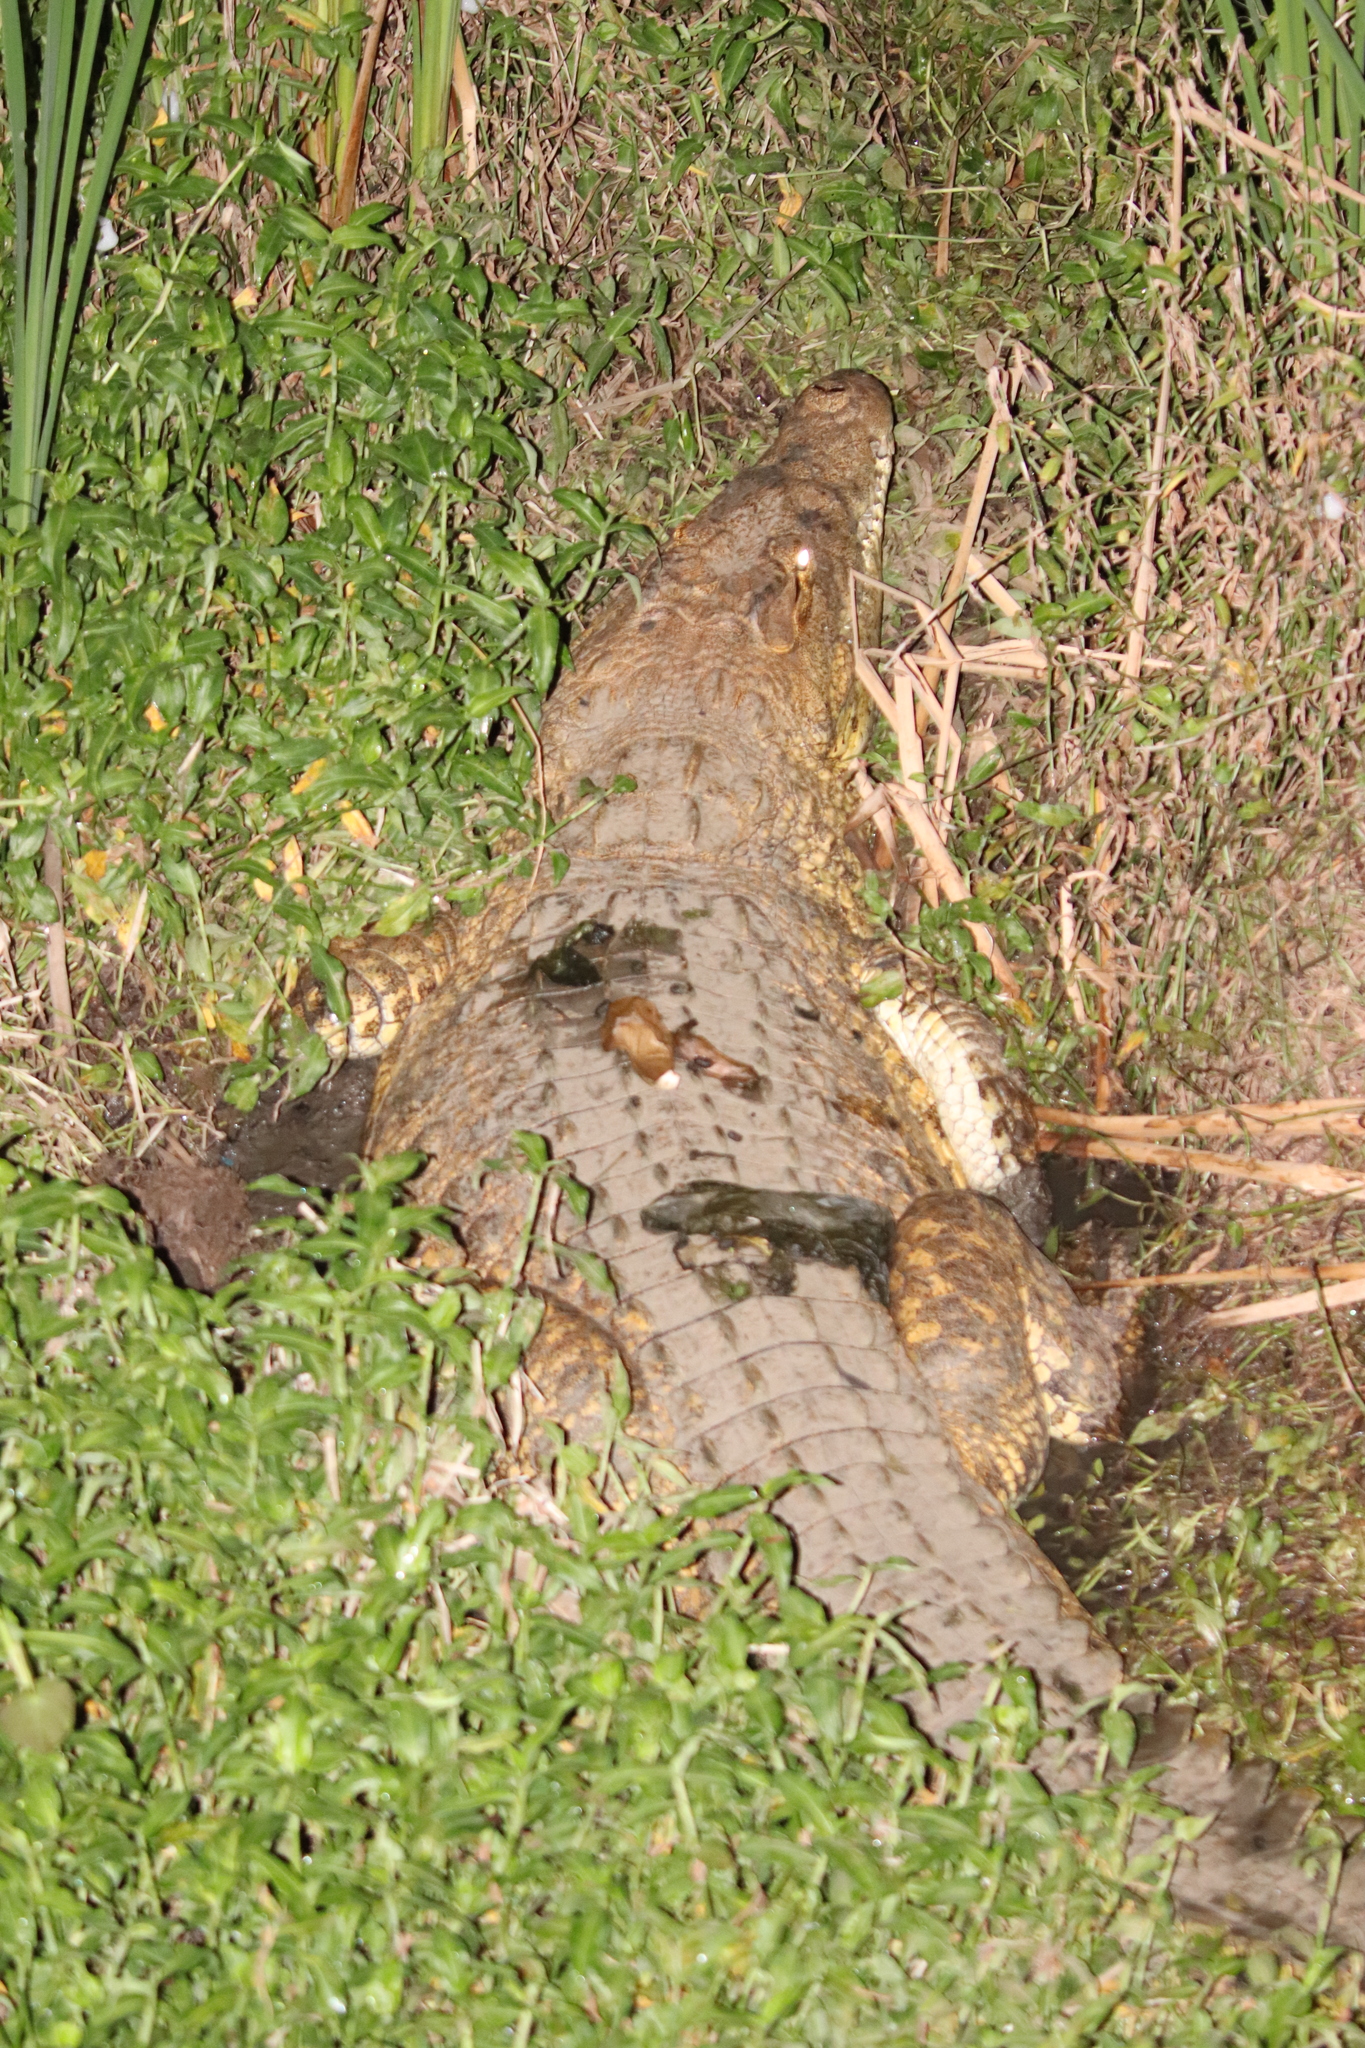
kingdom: Animalia
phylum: Chordata
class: Crocodylia
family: Crocodylidae
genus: Crocodylus
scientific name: Crocodylus suchus
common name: West african crocodile
